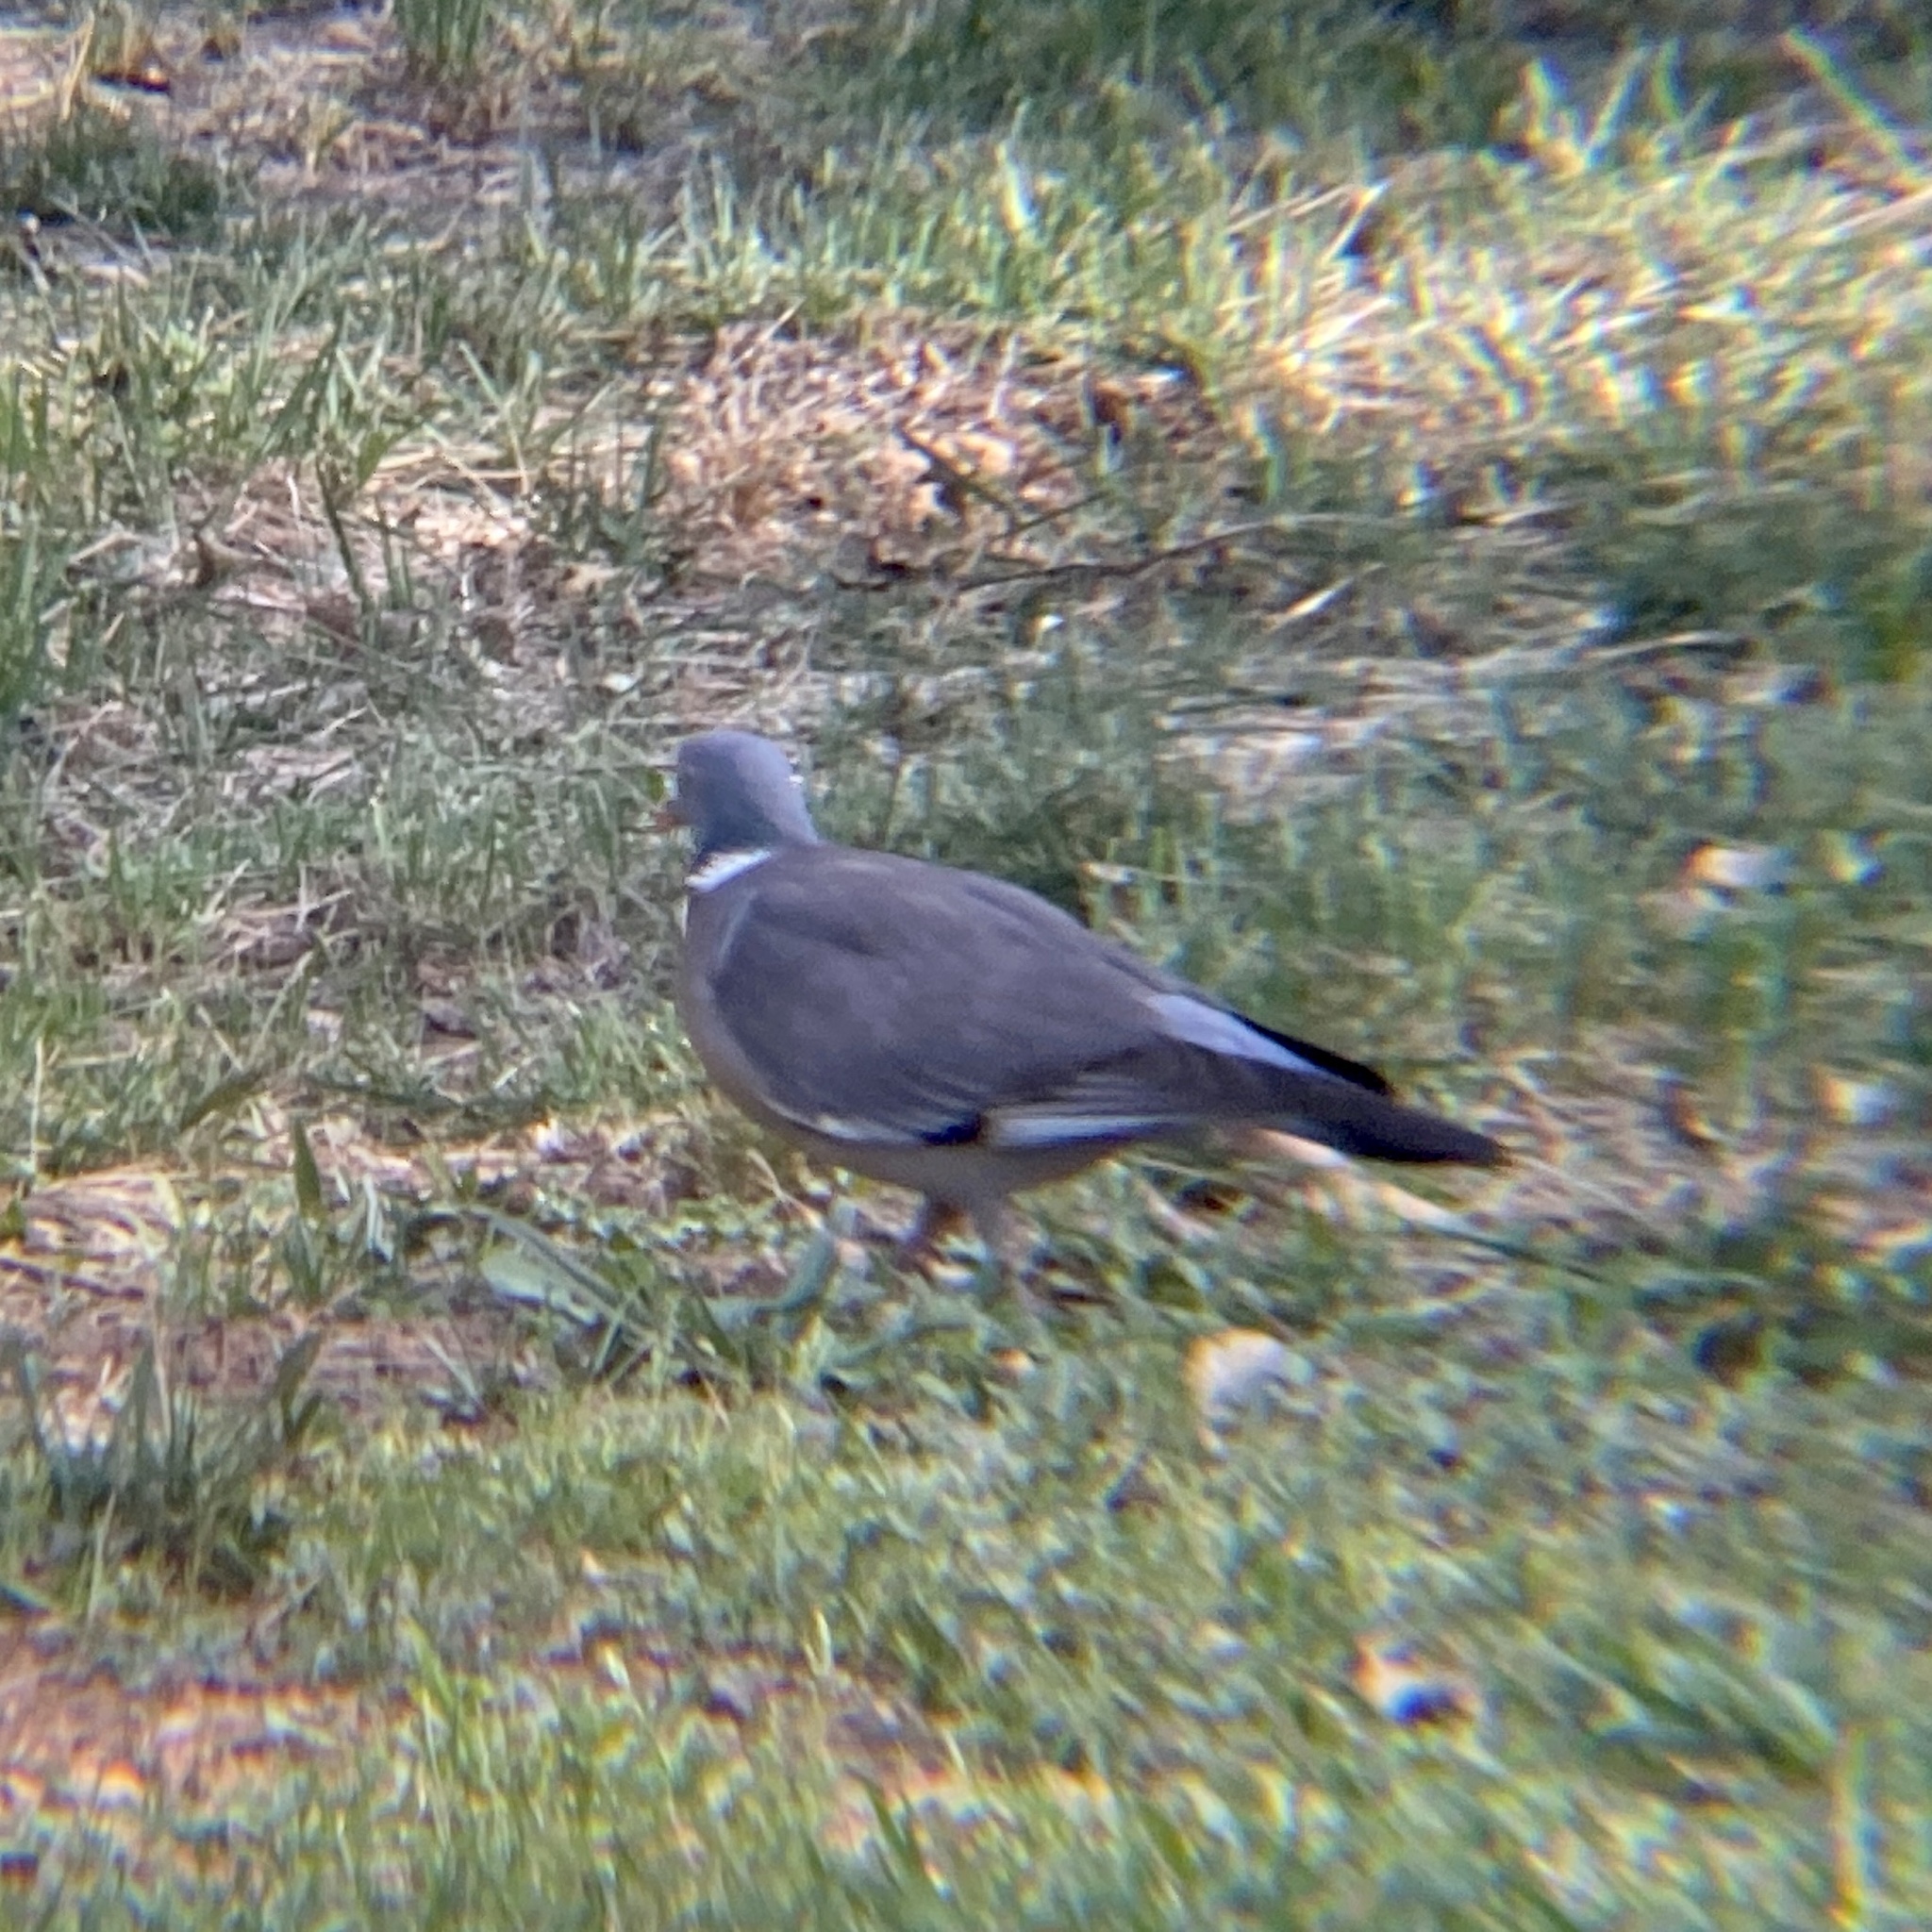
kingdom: Animalia
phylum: Chordata
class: Aves
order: Columbiformes
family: Columbidae
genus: Columba
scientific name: Columba palumbus
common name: Common wood pigeon
